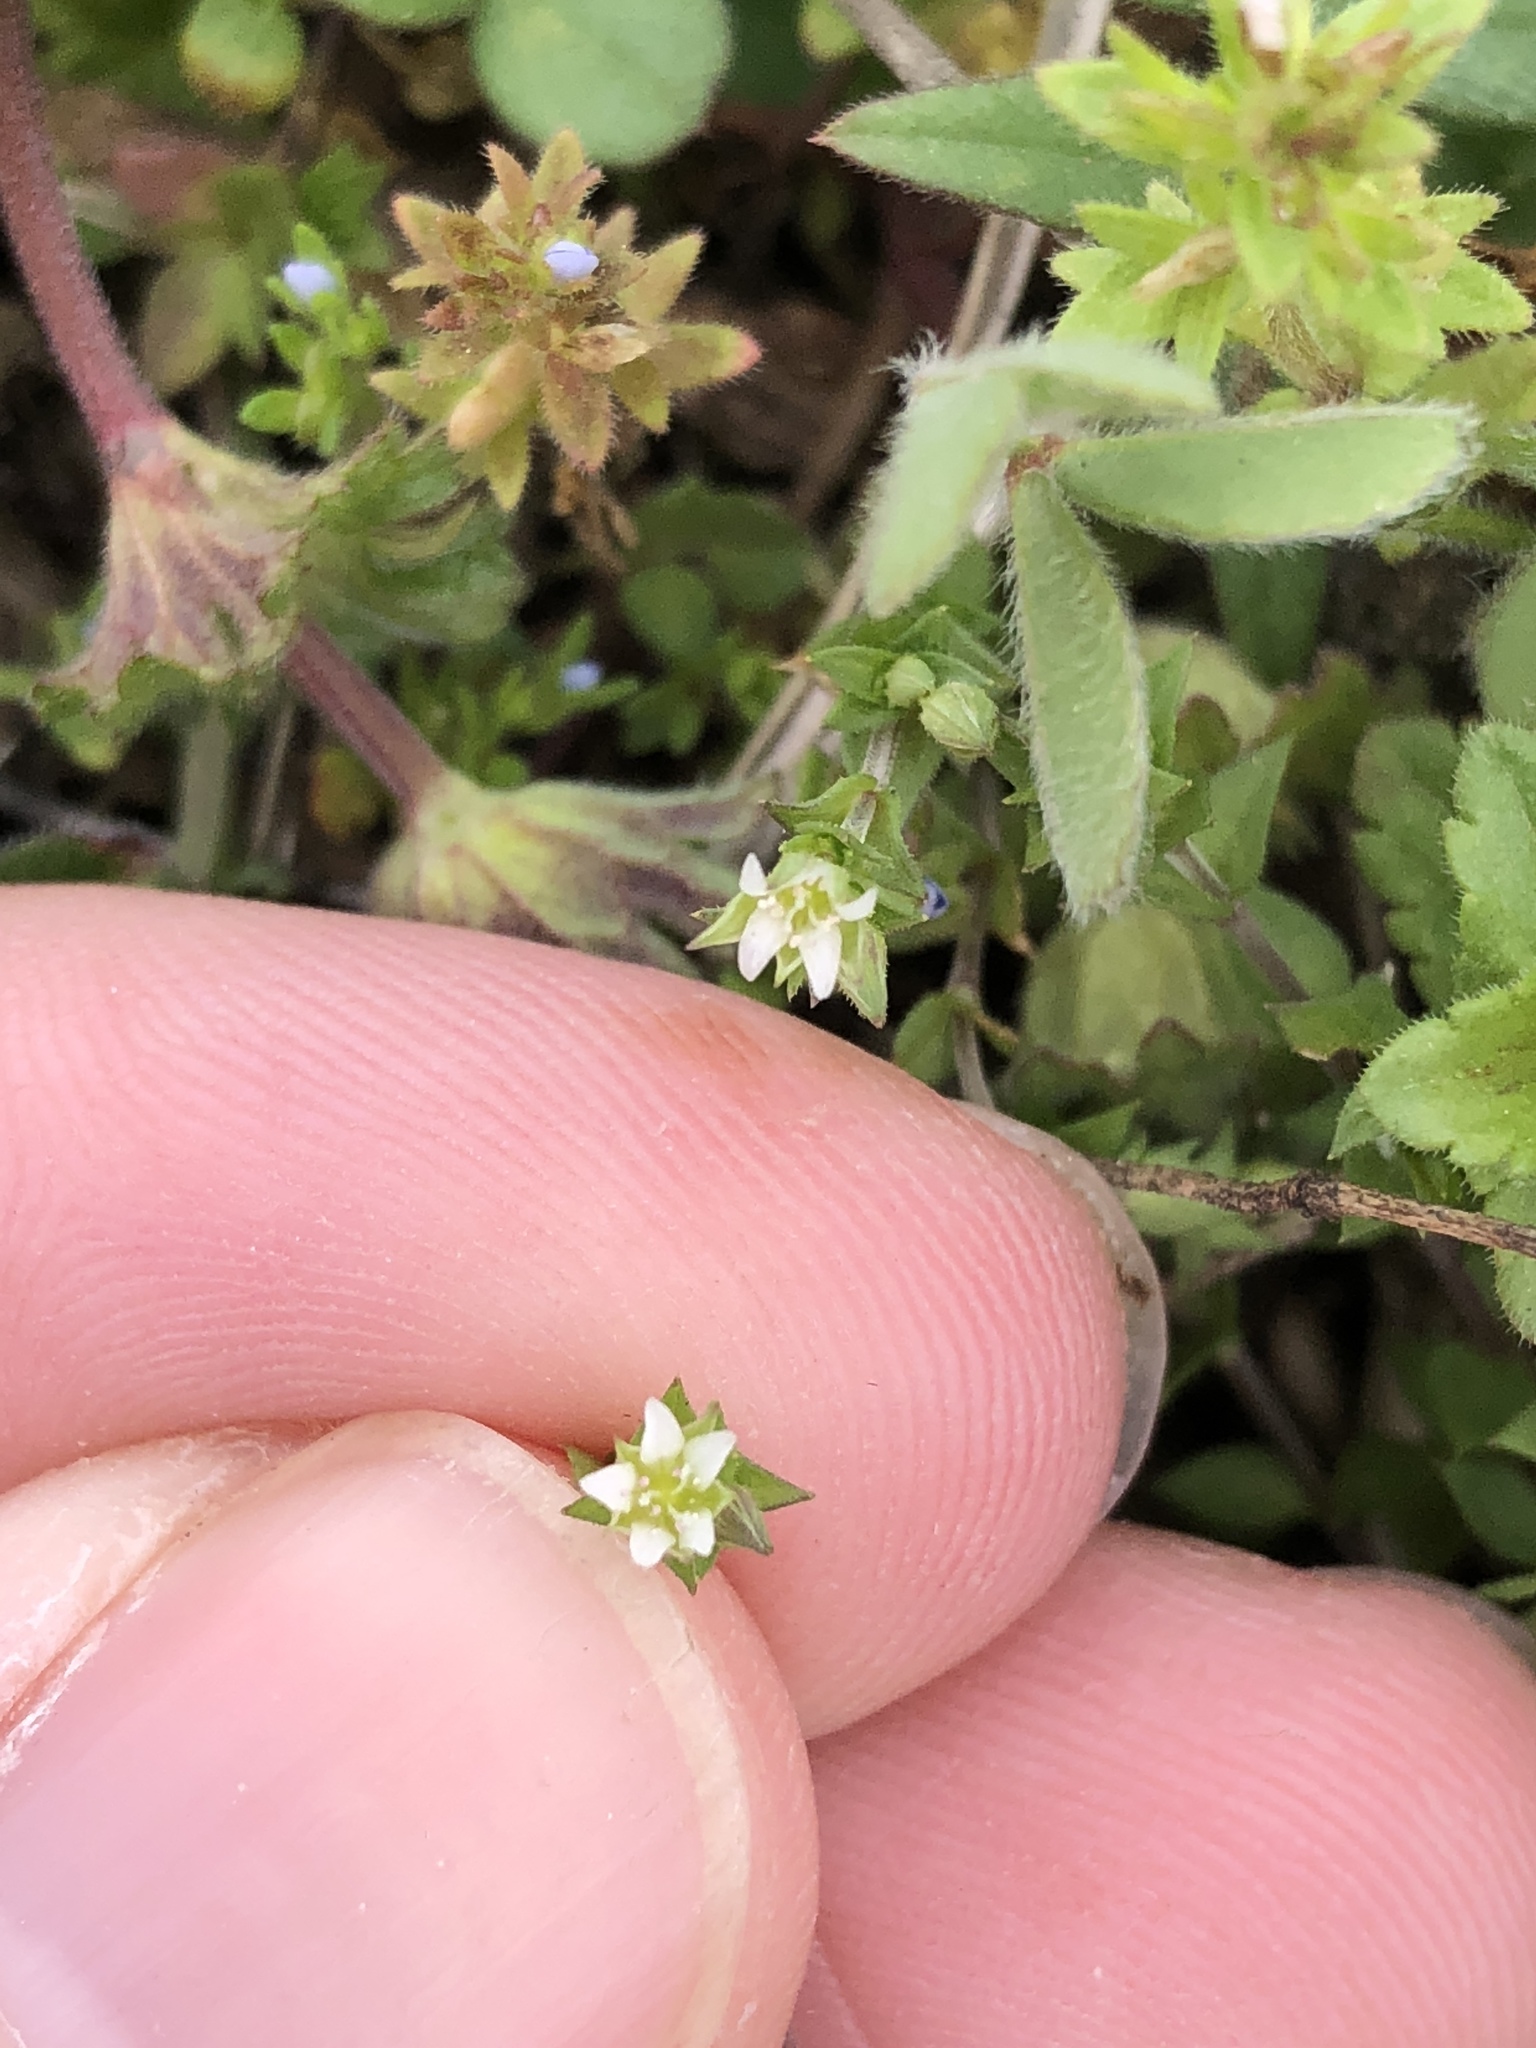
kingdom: Plantae
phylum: Tracheophyta
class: Magnoliopsida
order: Caryophyllales
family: Caryophyllaceae
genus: Arenaria
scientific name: Arenaria serpyllifolia
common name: Thyme-leaved sandwort
